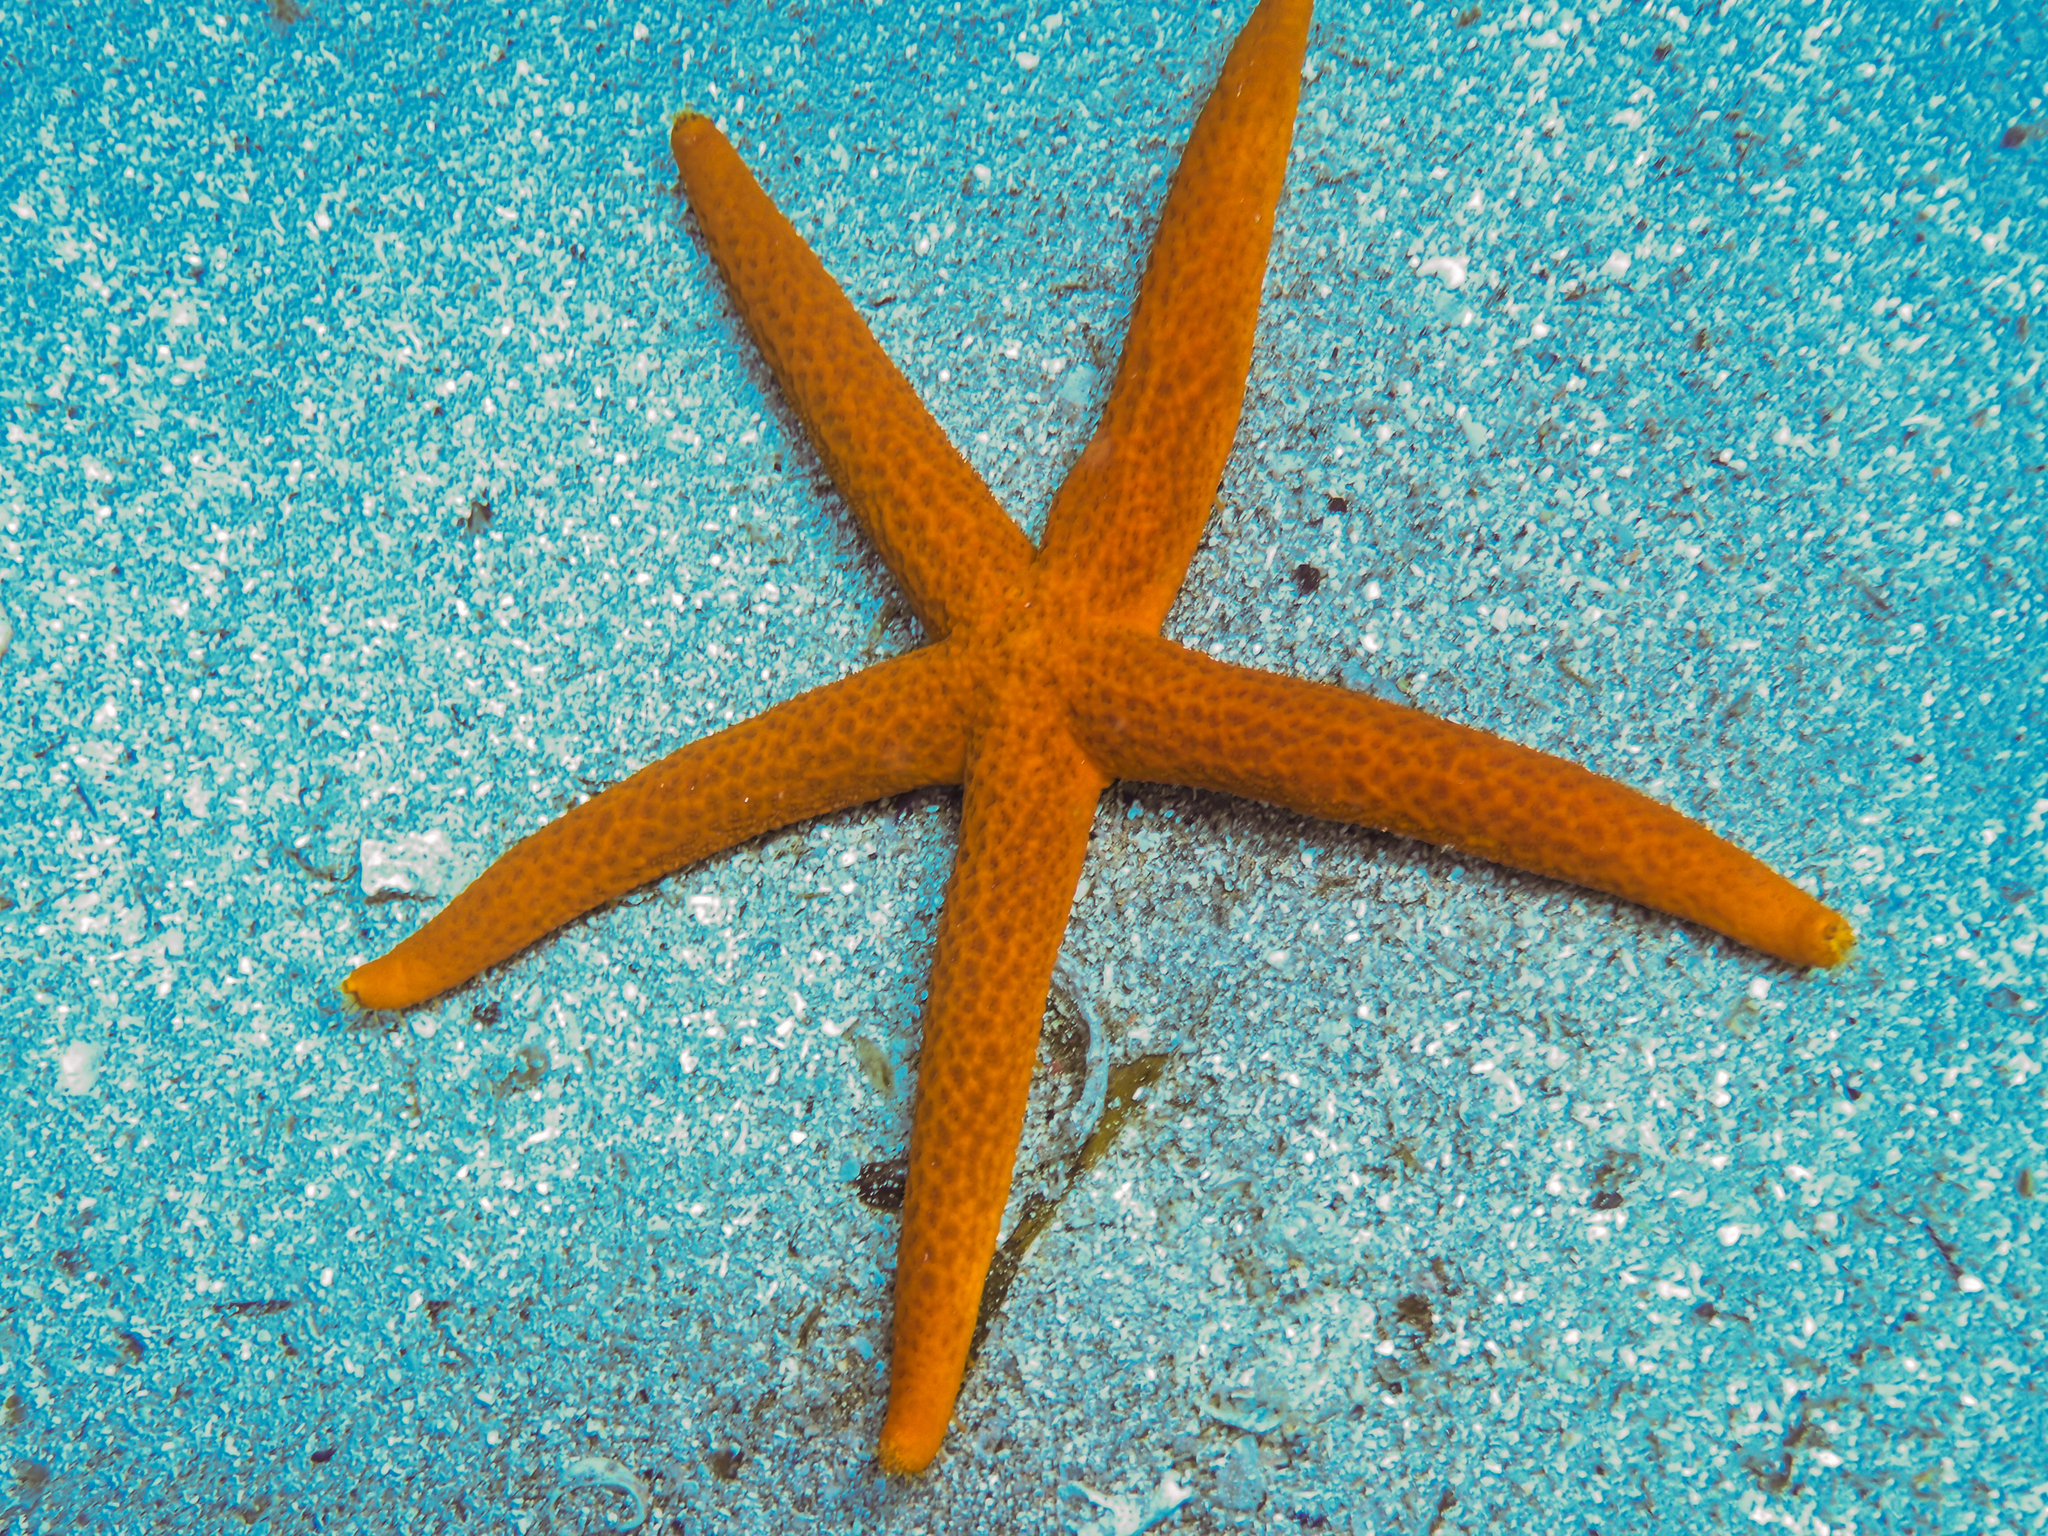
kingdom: Animalia
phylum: Echinodermata
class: Asteroidea
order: Spinulosida
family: Echinasteridae
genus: Echinaster
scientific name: Echinaster sepositus
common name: Red starfish
